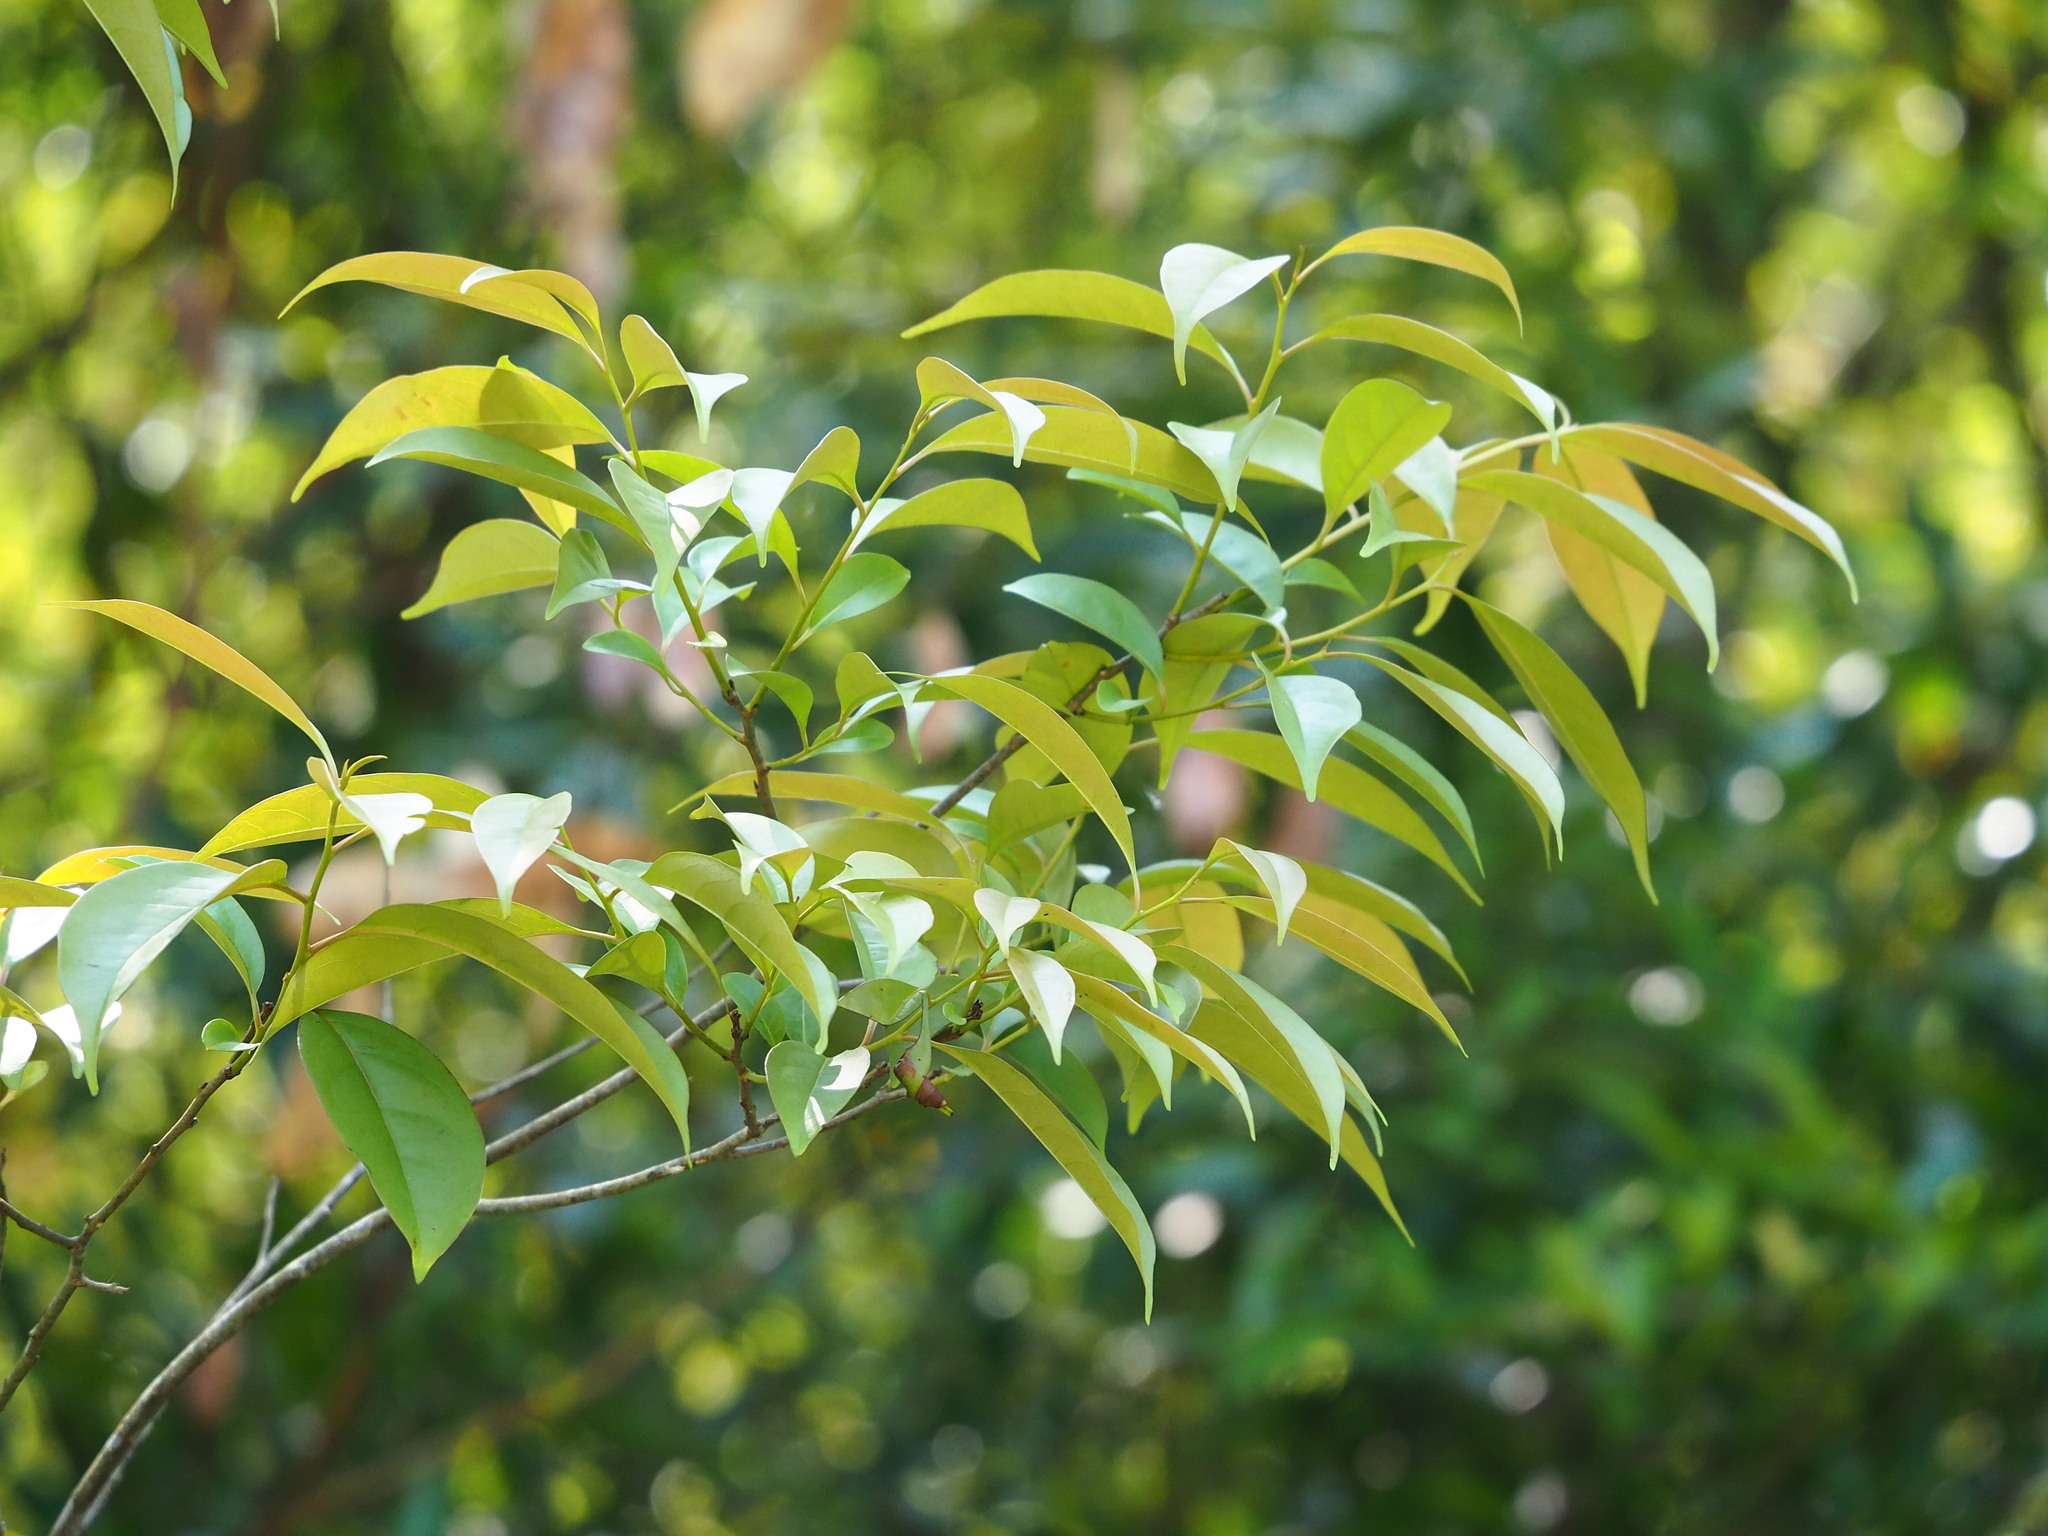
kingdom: Plantae
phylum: Tracheophyta
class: Magnoliopsida
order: Ericales
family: Ebenaceae
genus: Diospyros
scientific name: Diospyros morrisiana
